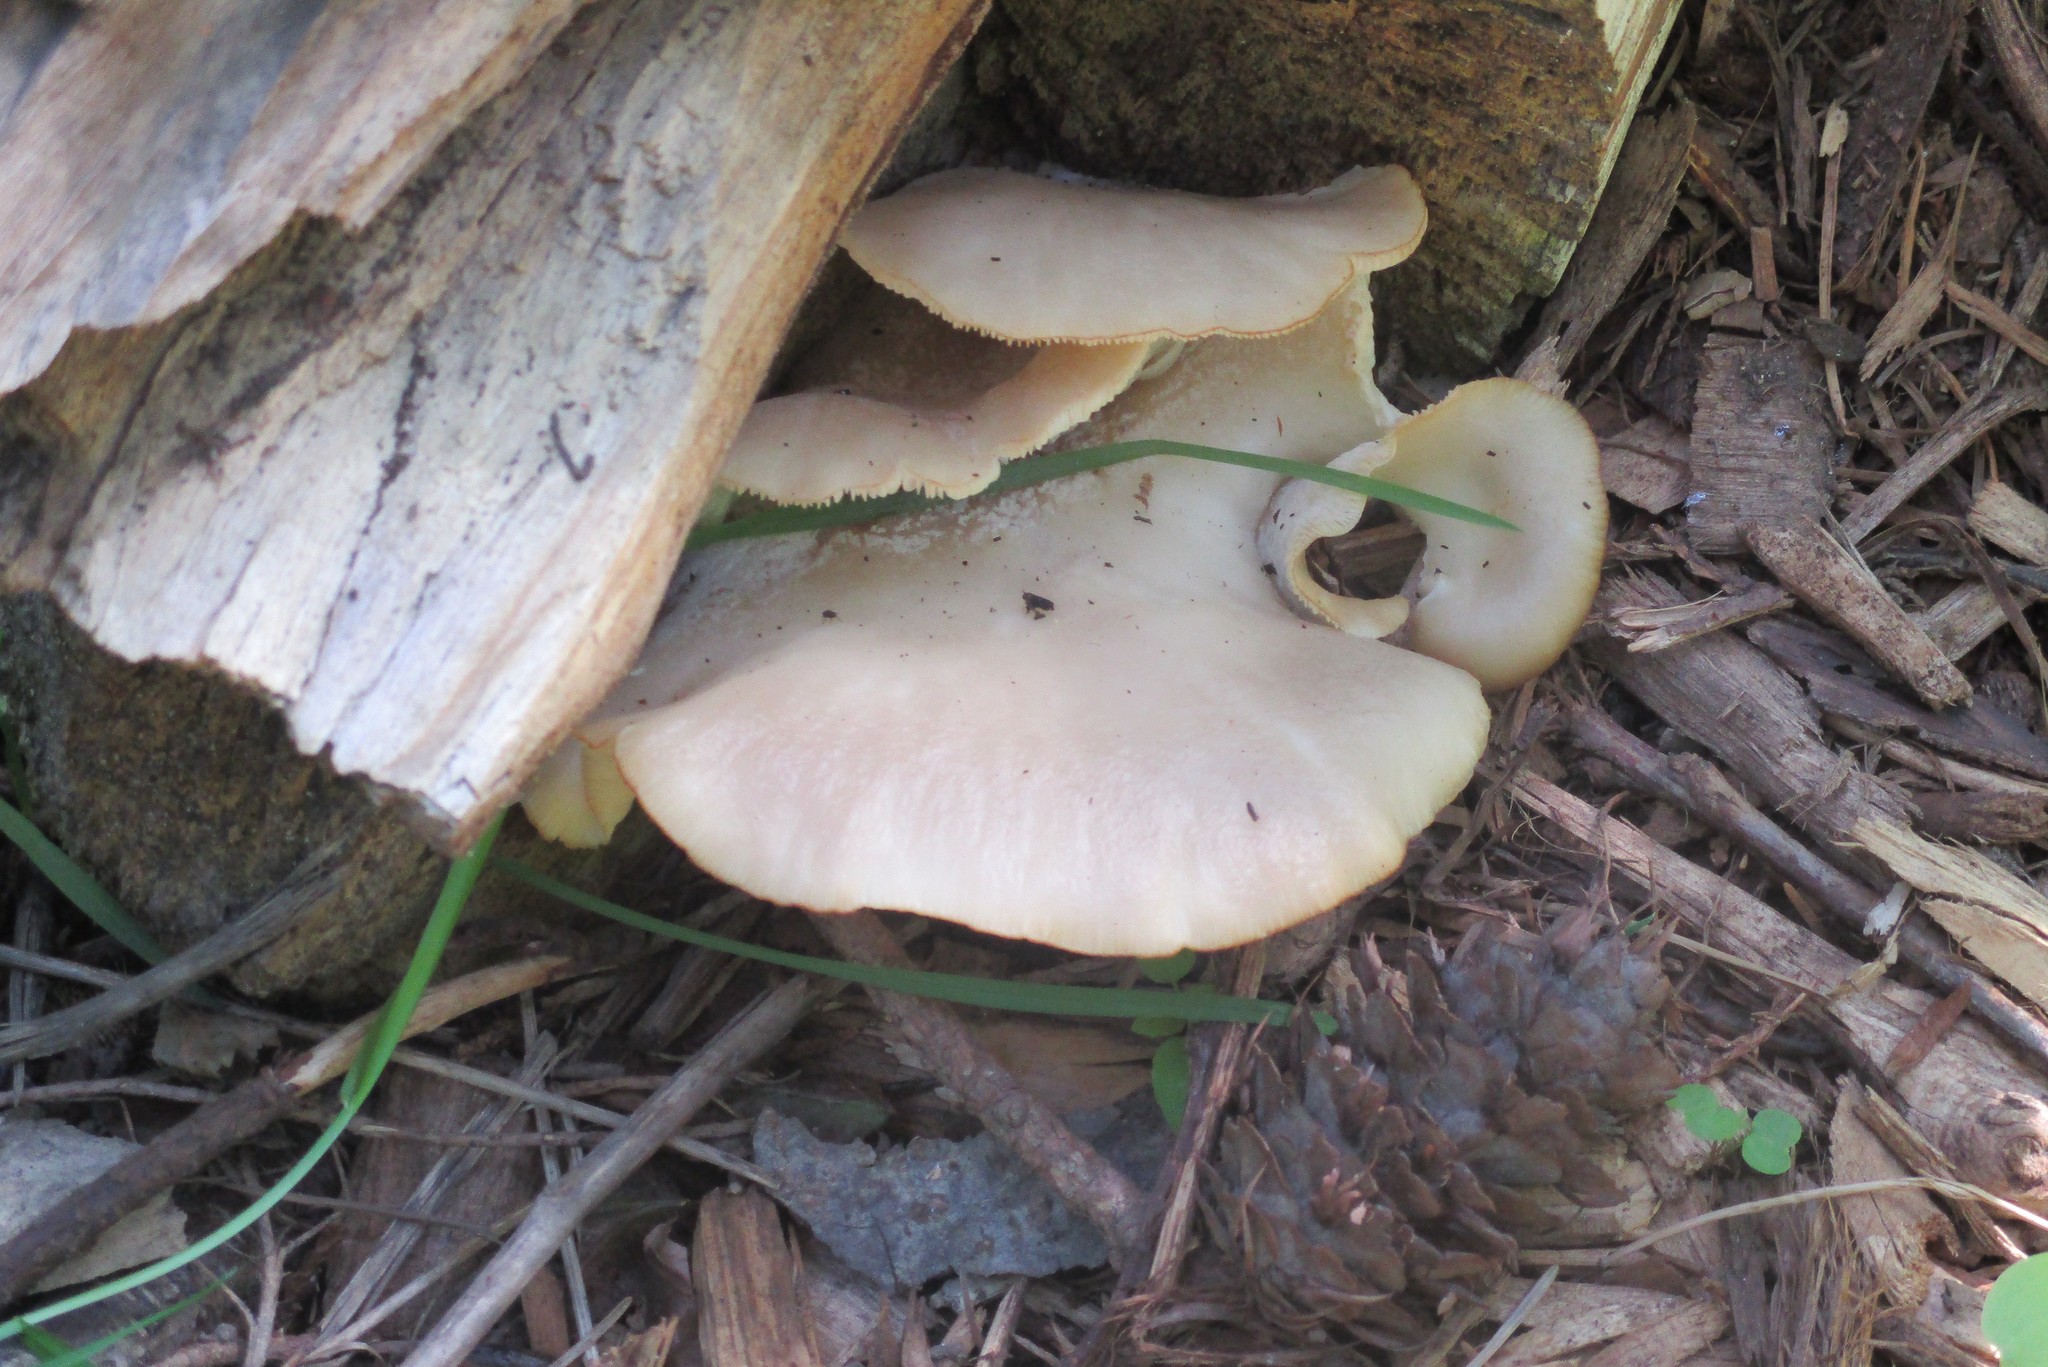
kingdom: Fungi
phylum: Basidiomycota
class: Agaricomycetes
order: Agaricales
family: Pleurotaceae
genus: Pleurotus
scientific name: Pleurotus ostreatus
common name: Oyster mushroom
